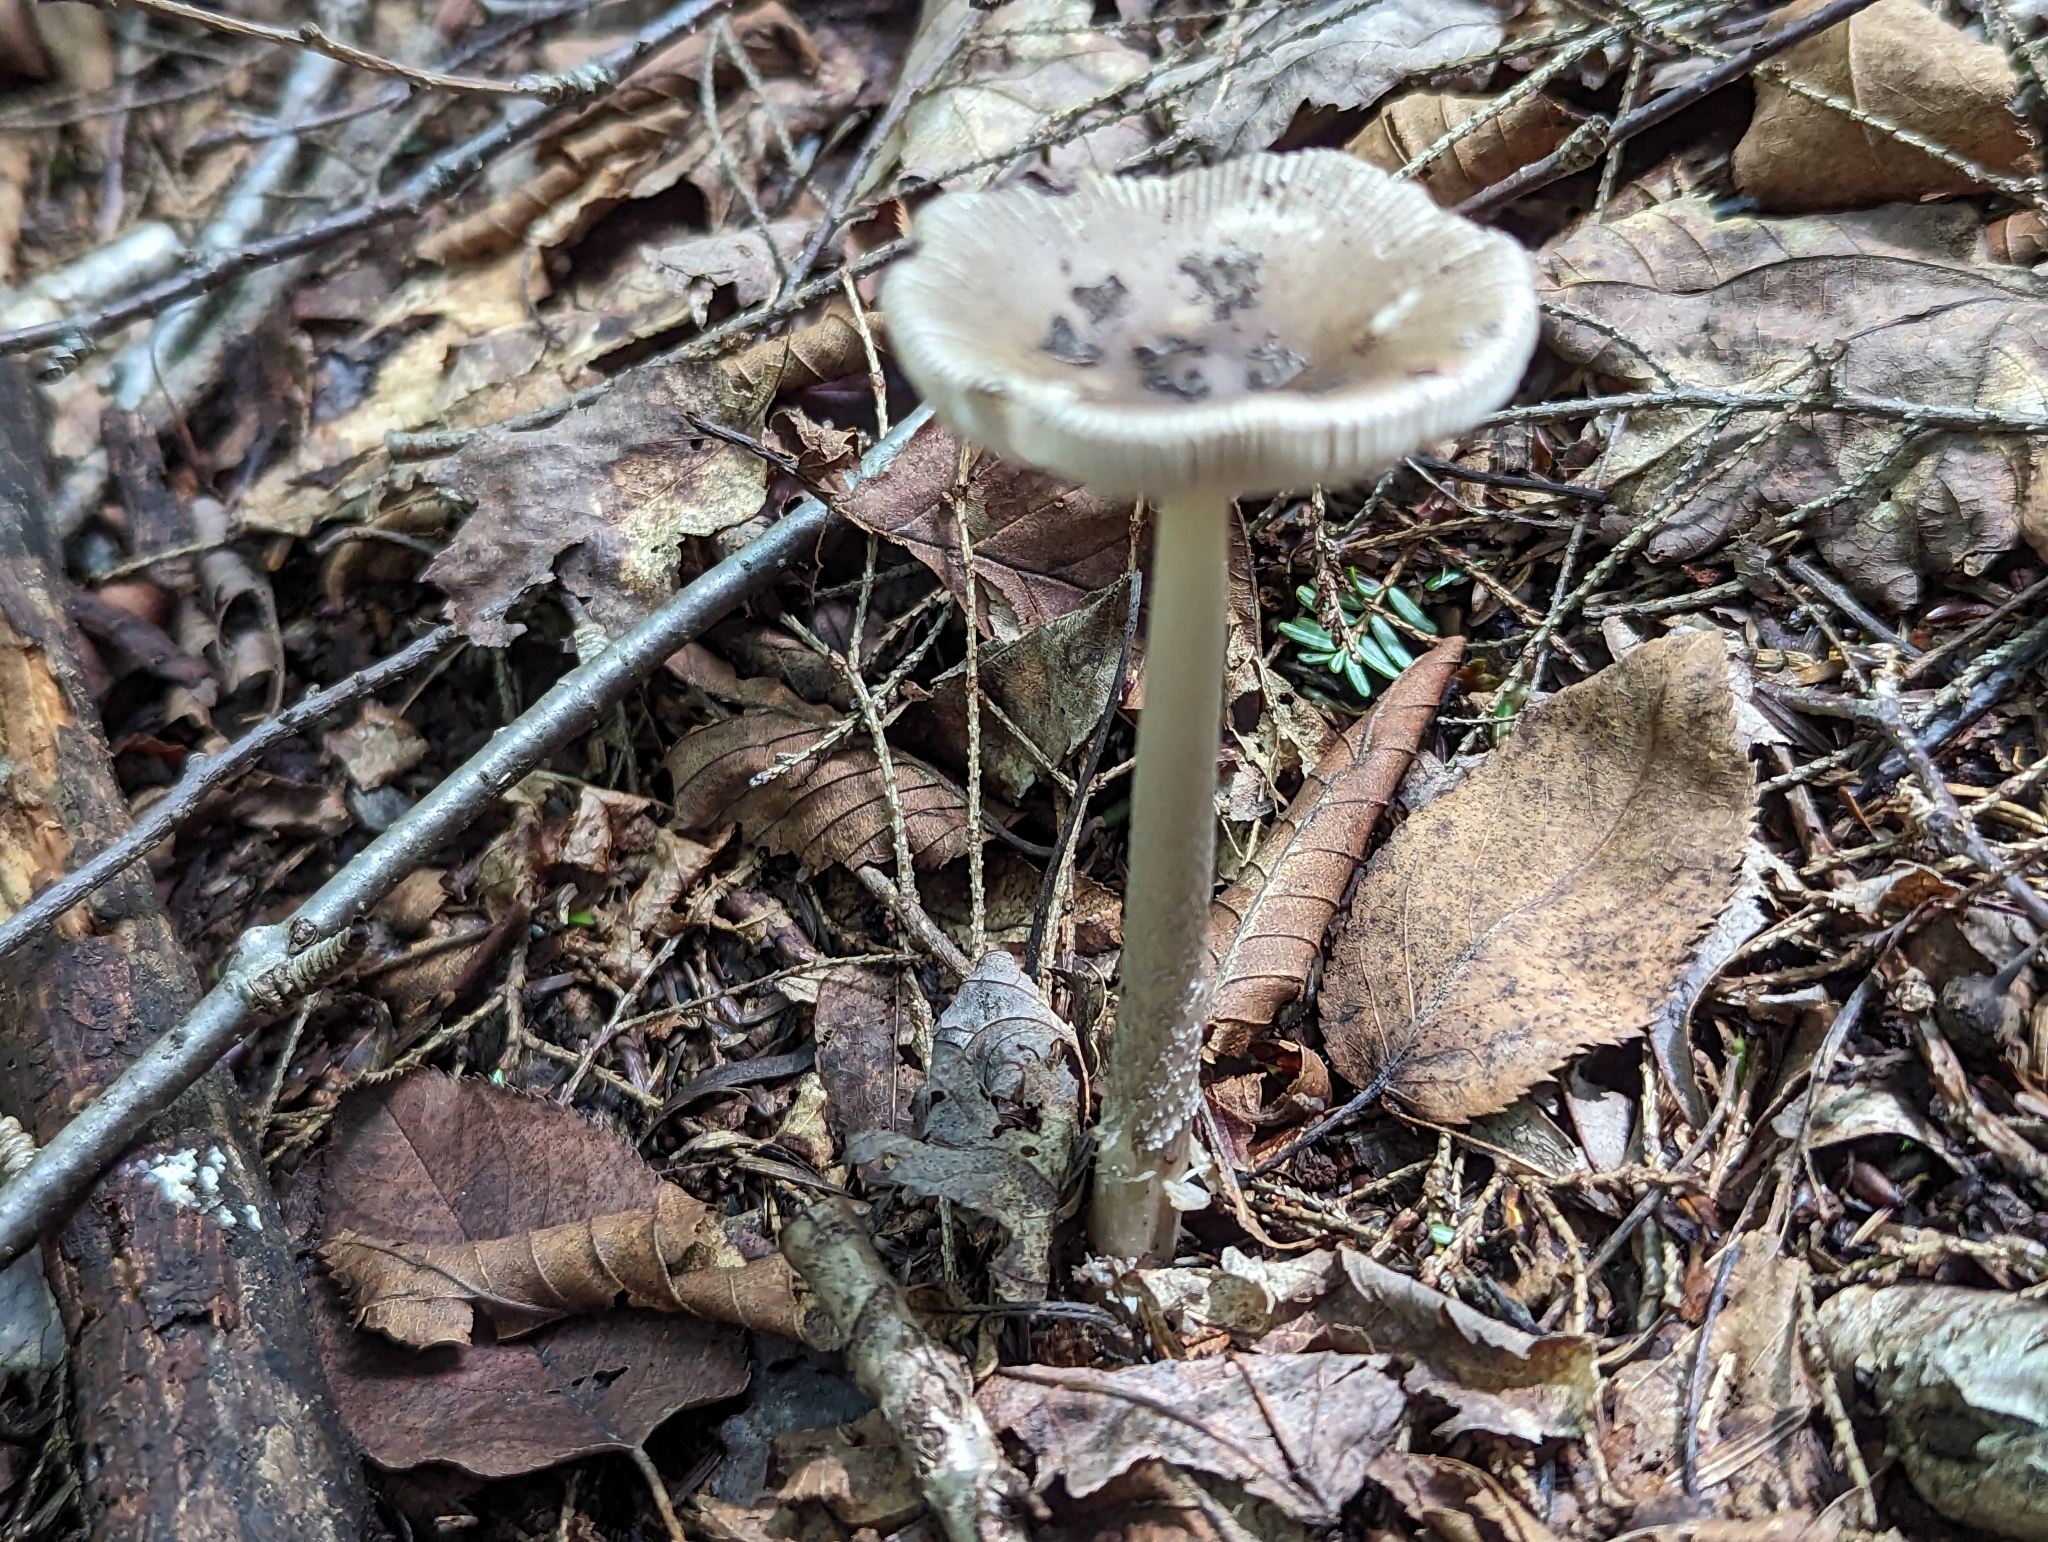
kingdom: Fungi
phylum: Basidiomycota
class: Agaricomycetes
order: Agaricales
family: Amanitaceae
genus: Amanita
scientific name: Amanita vaginata
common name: Grisette
